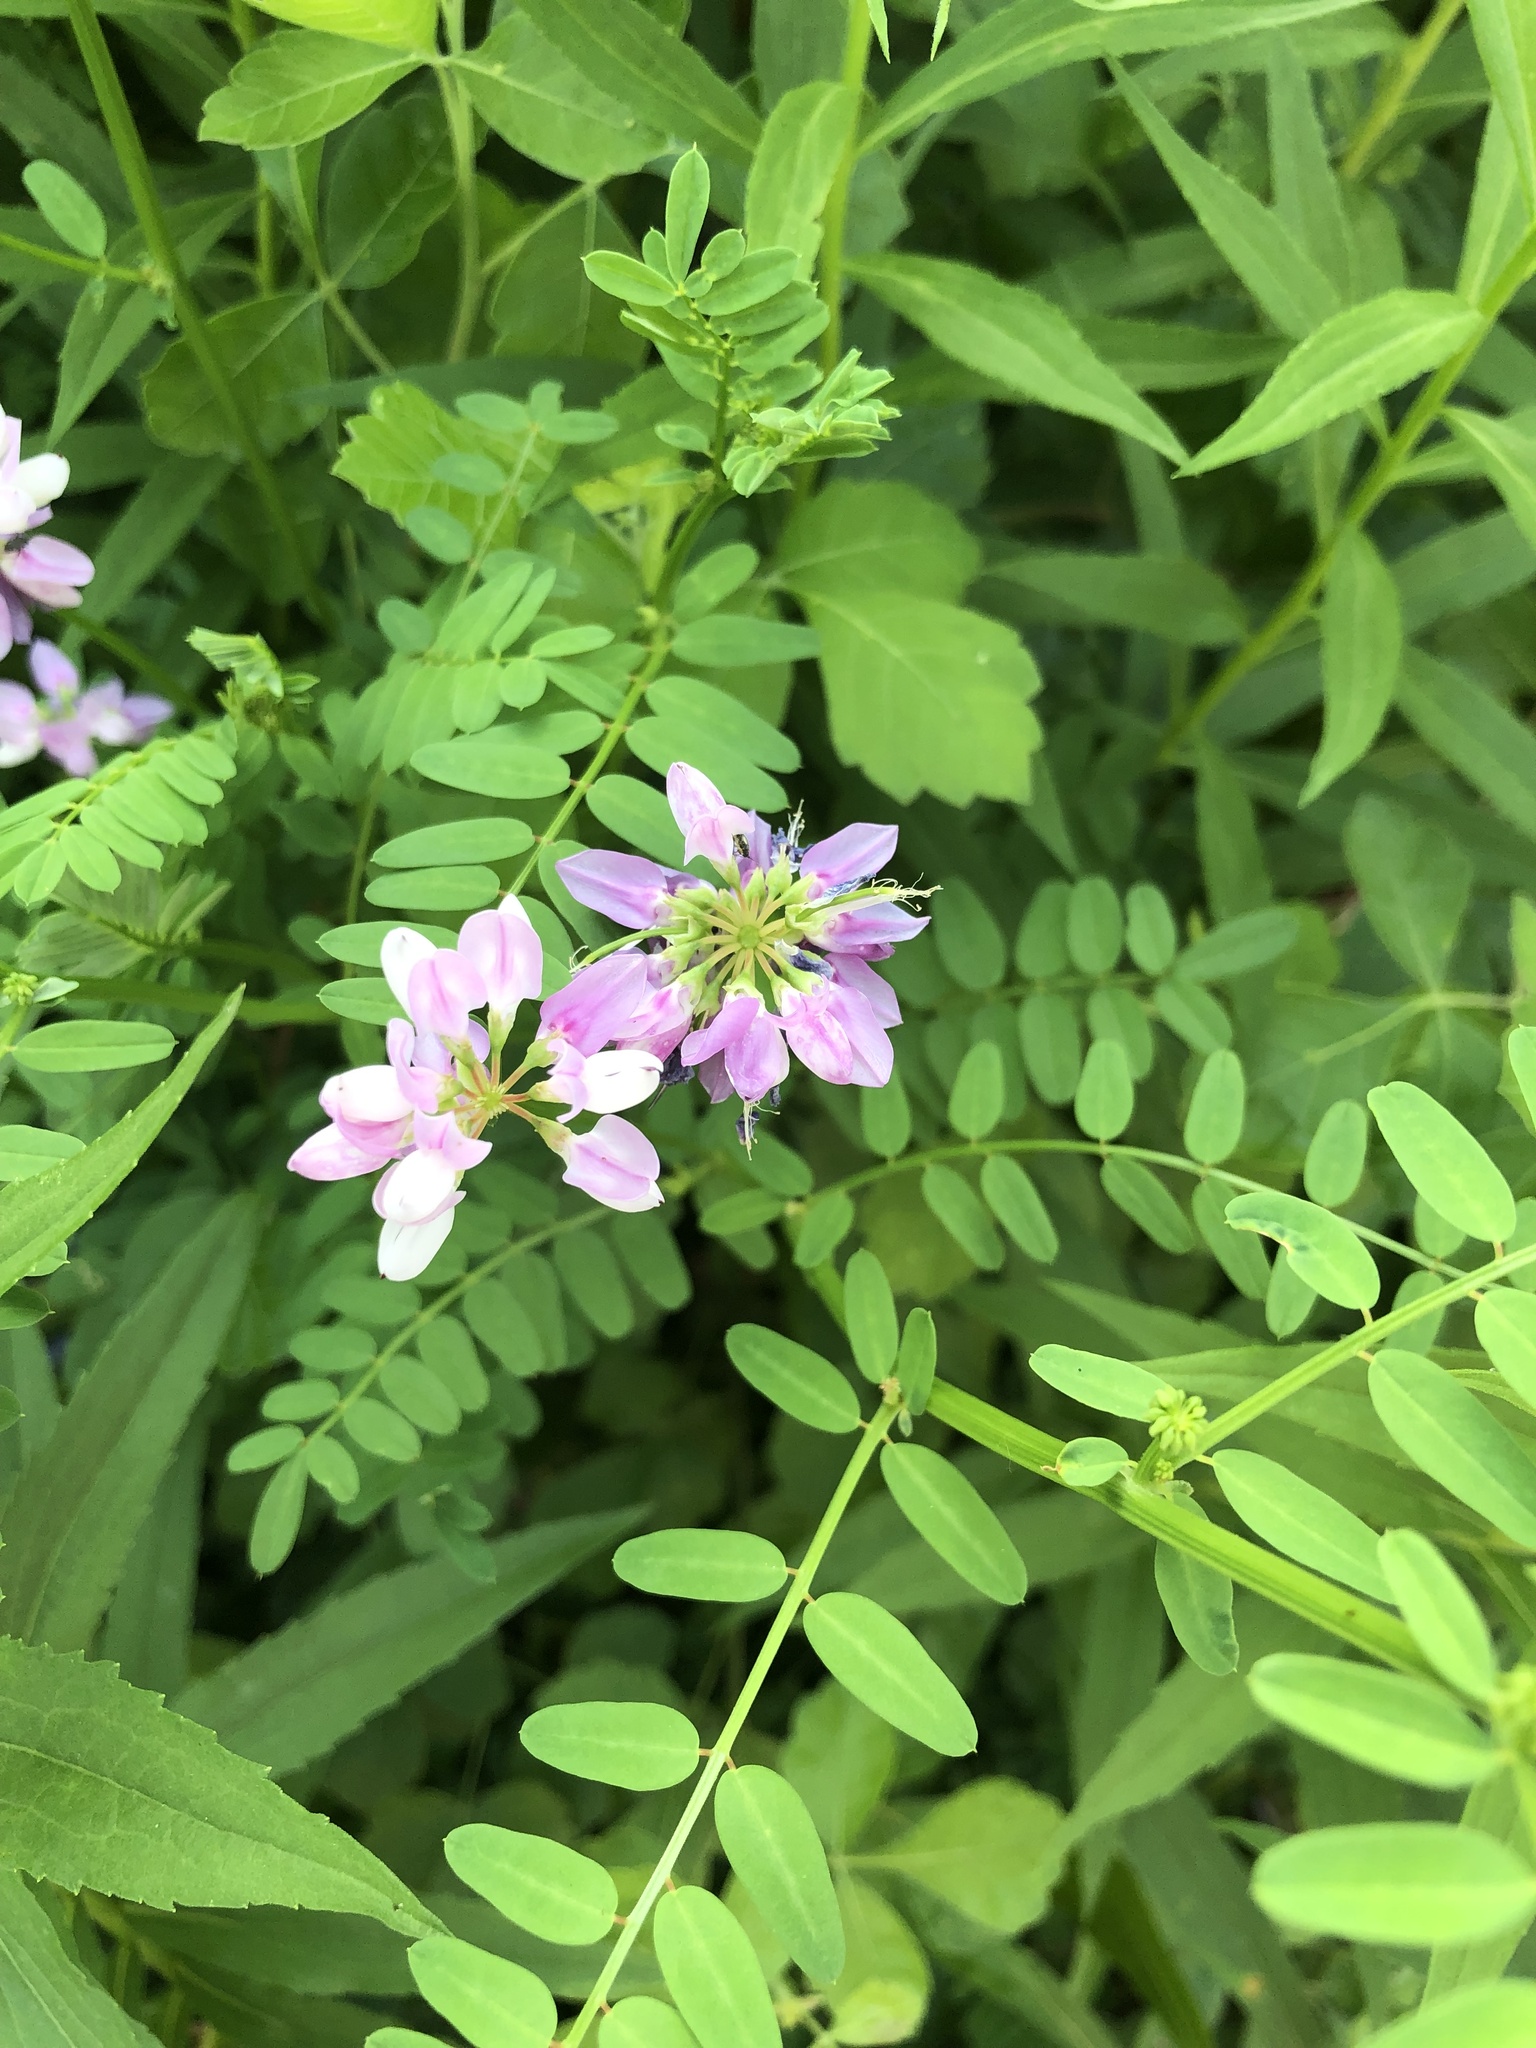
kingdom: Plantae
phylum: Tracheophyta
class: Magnoliopsida
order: Fabales
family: Fabaceae
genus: Coronilla
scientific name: Coronilla varia
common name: Crownvetch
